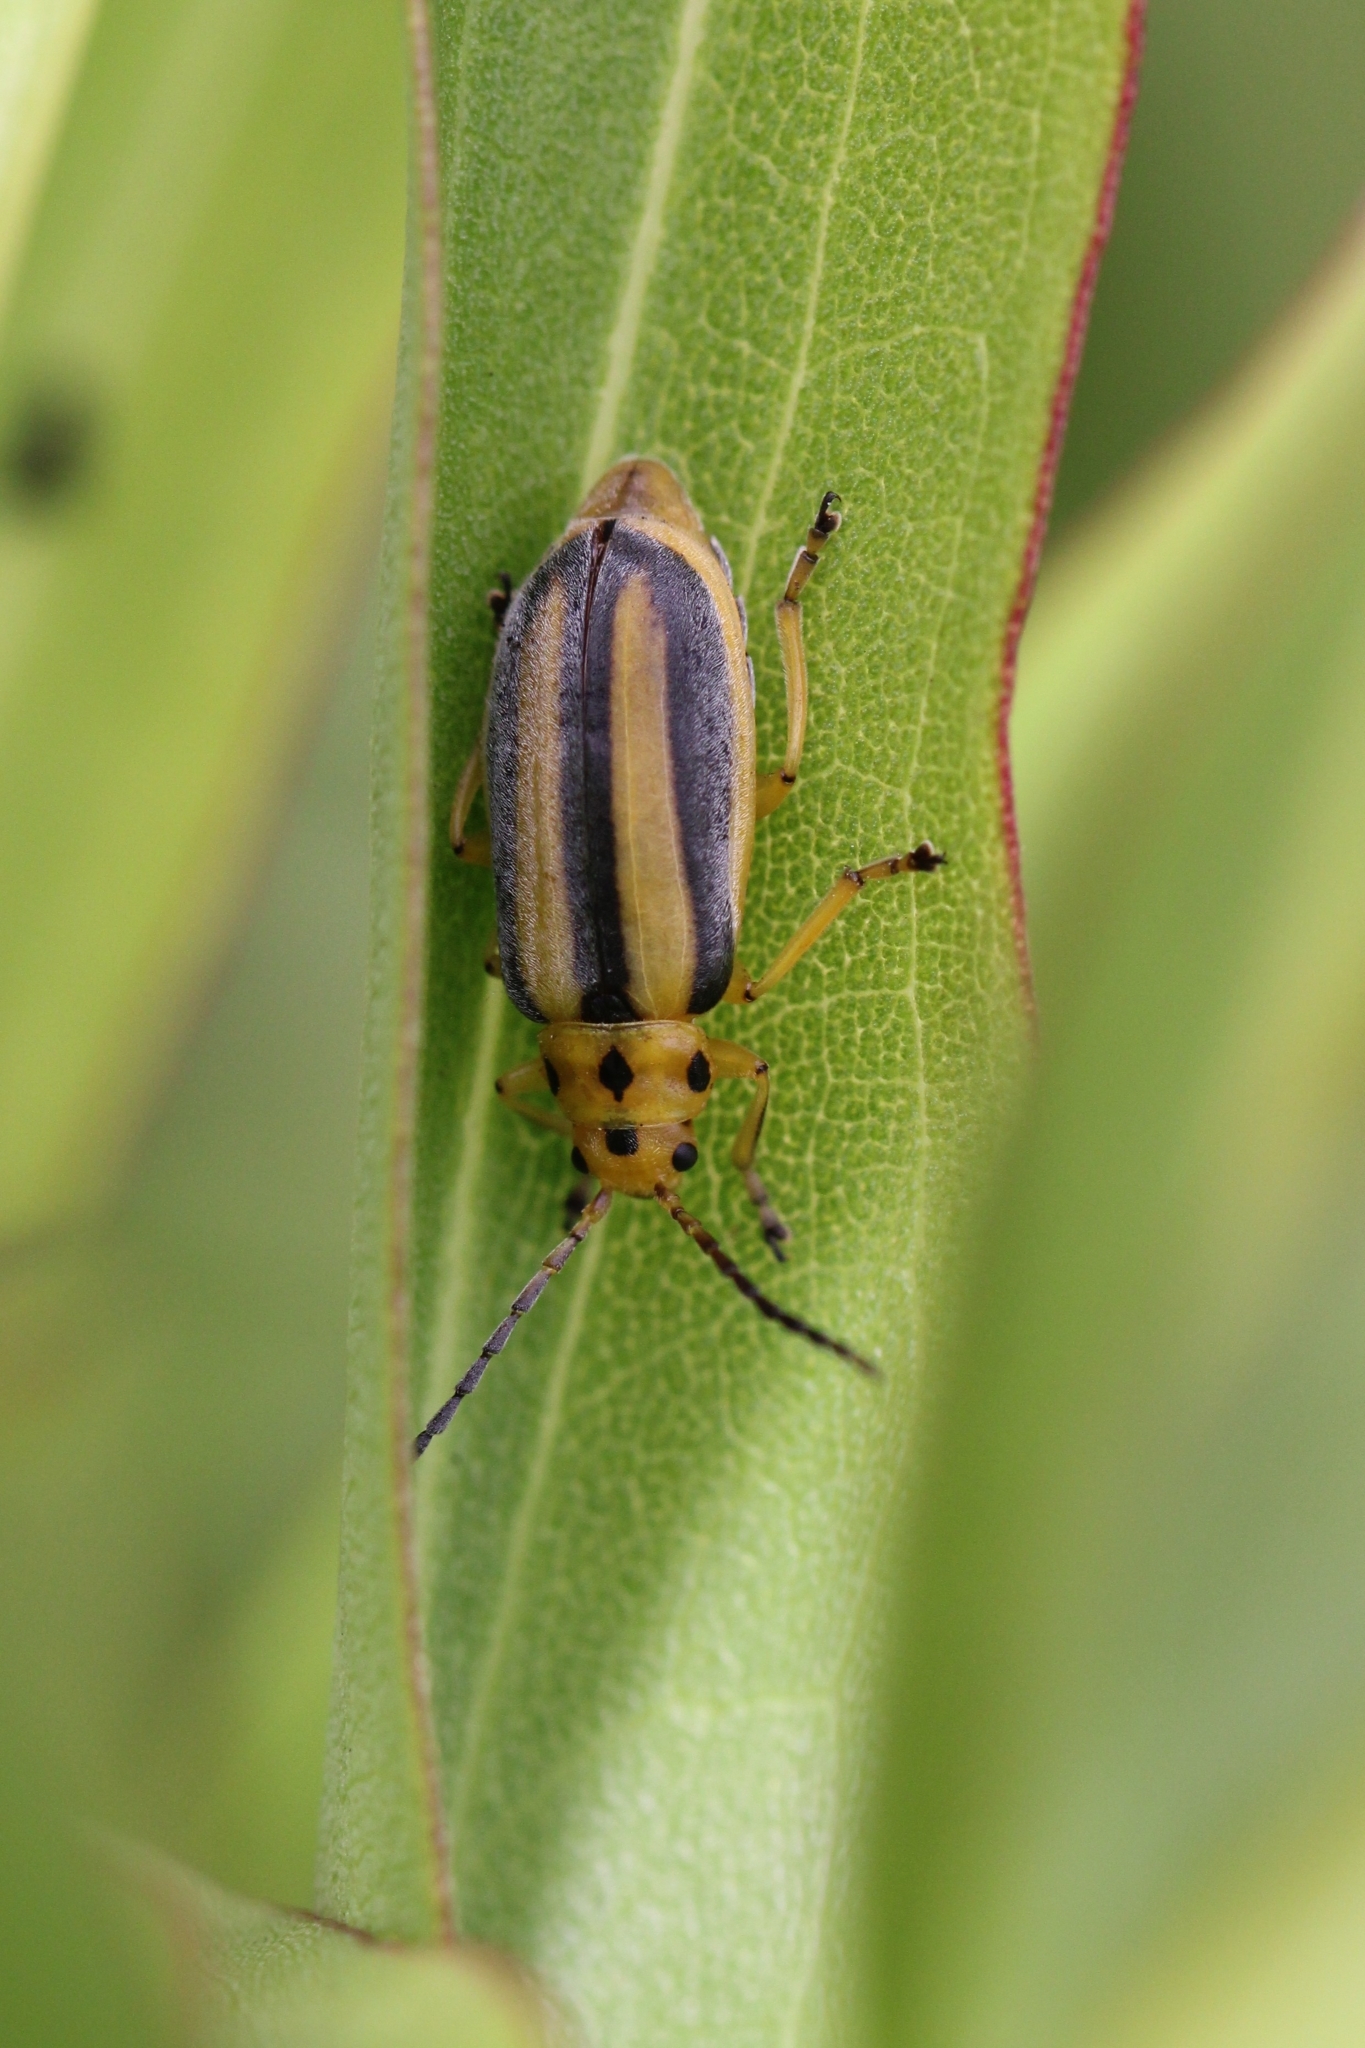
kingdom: Animalia
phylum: Arthropoda
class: Insecta
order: Coleoptera
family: Chrysomelidae
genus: Trirhabda
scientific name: Trirhabda bacharidis
